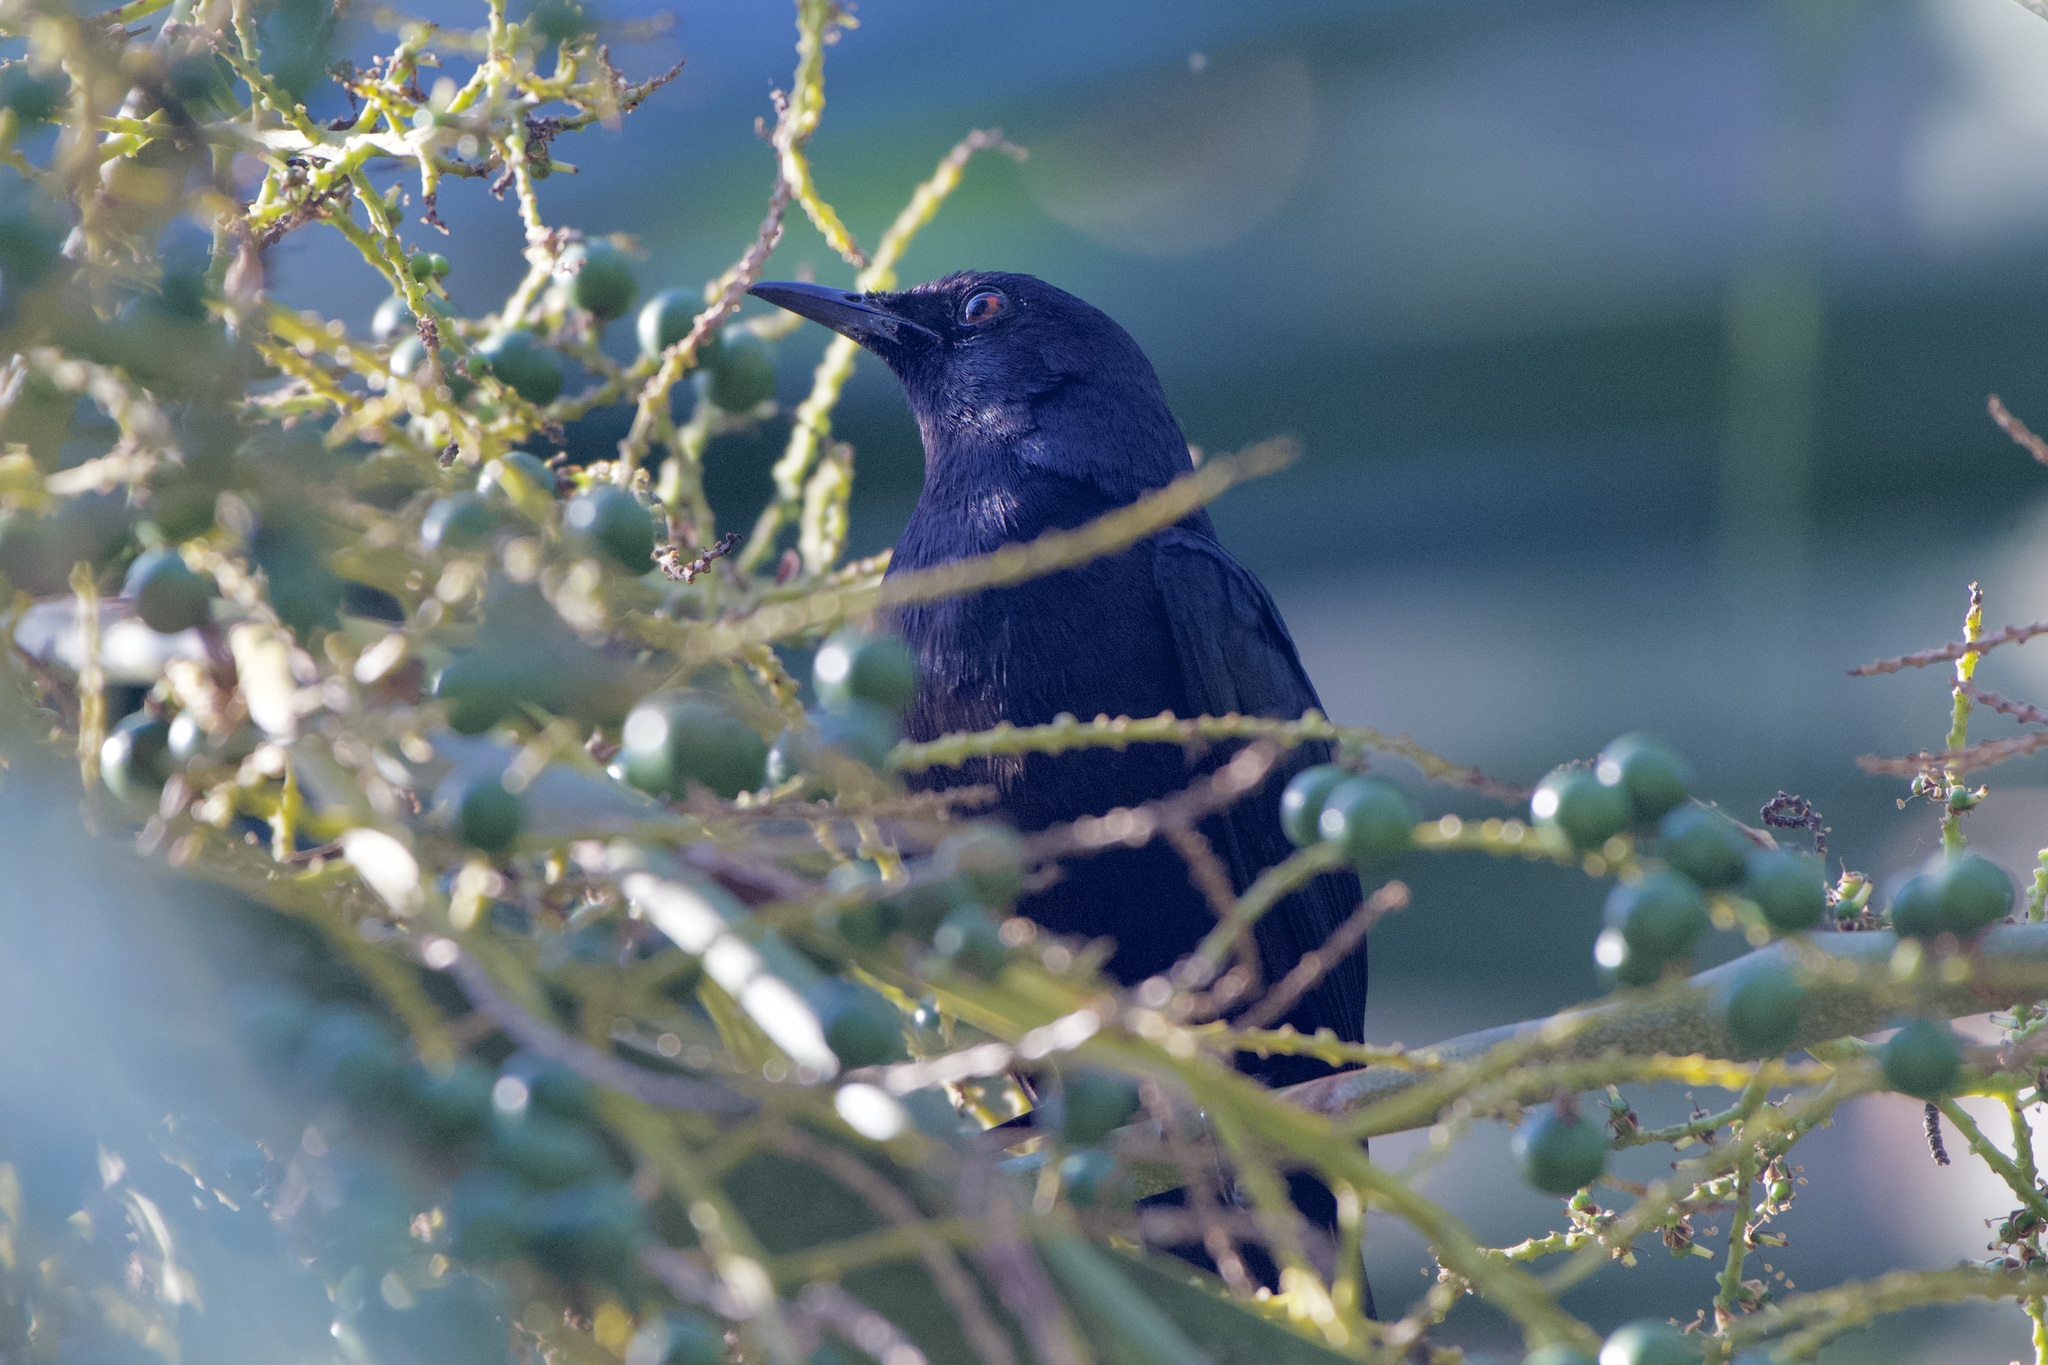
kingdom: Animalia
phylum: Chordata
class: Aves
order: Passeriformes
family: Mimidae
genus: Melanoptila
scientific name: Melanoptila glabrirostris
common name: Black catbird
